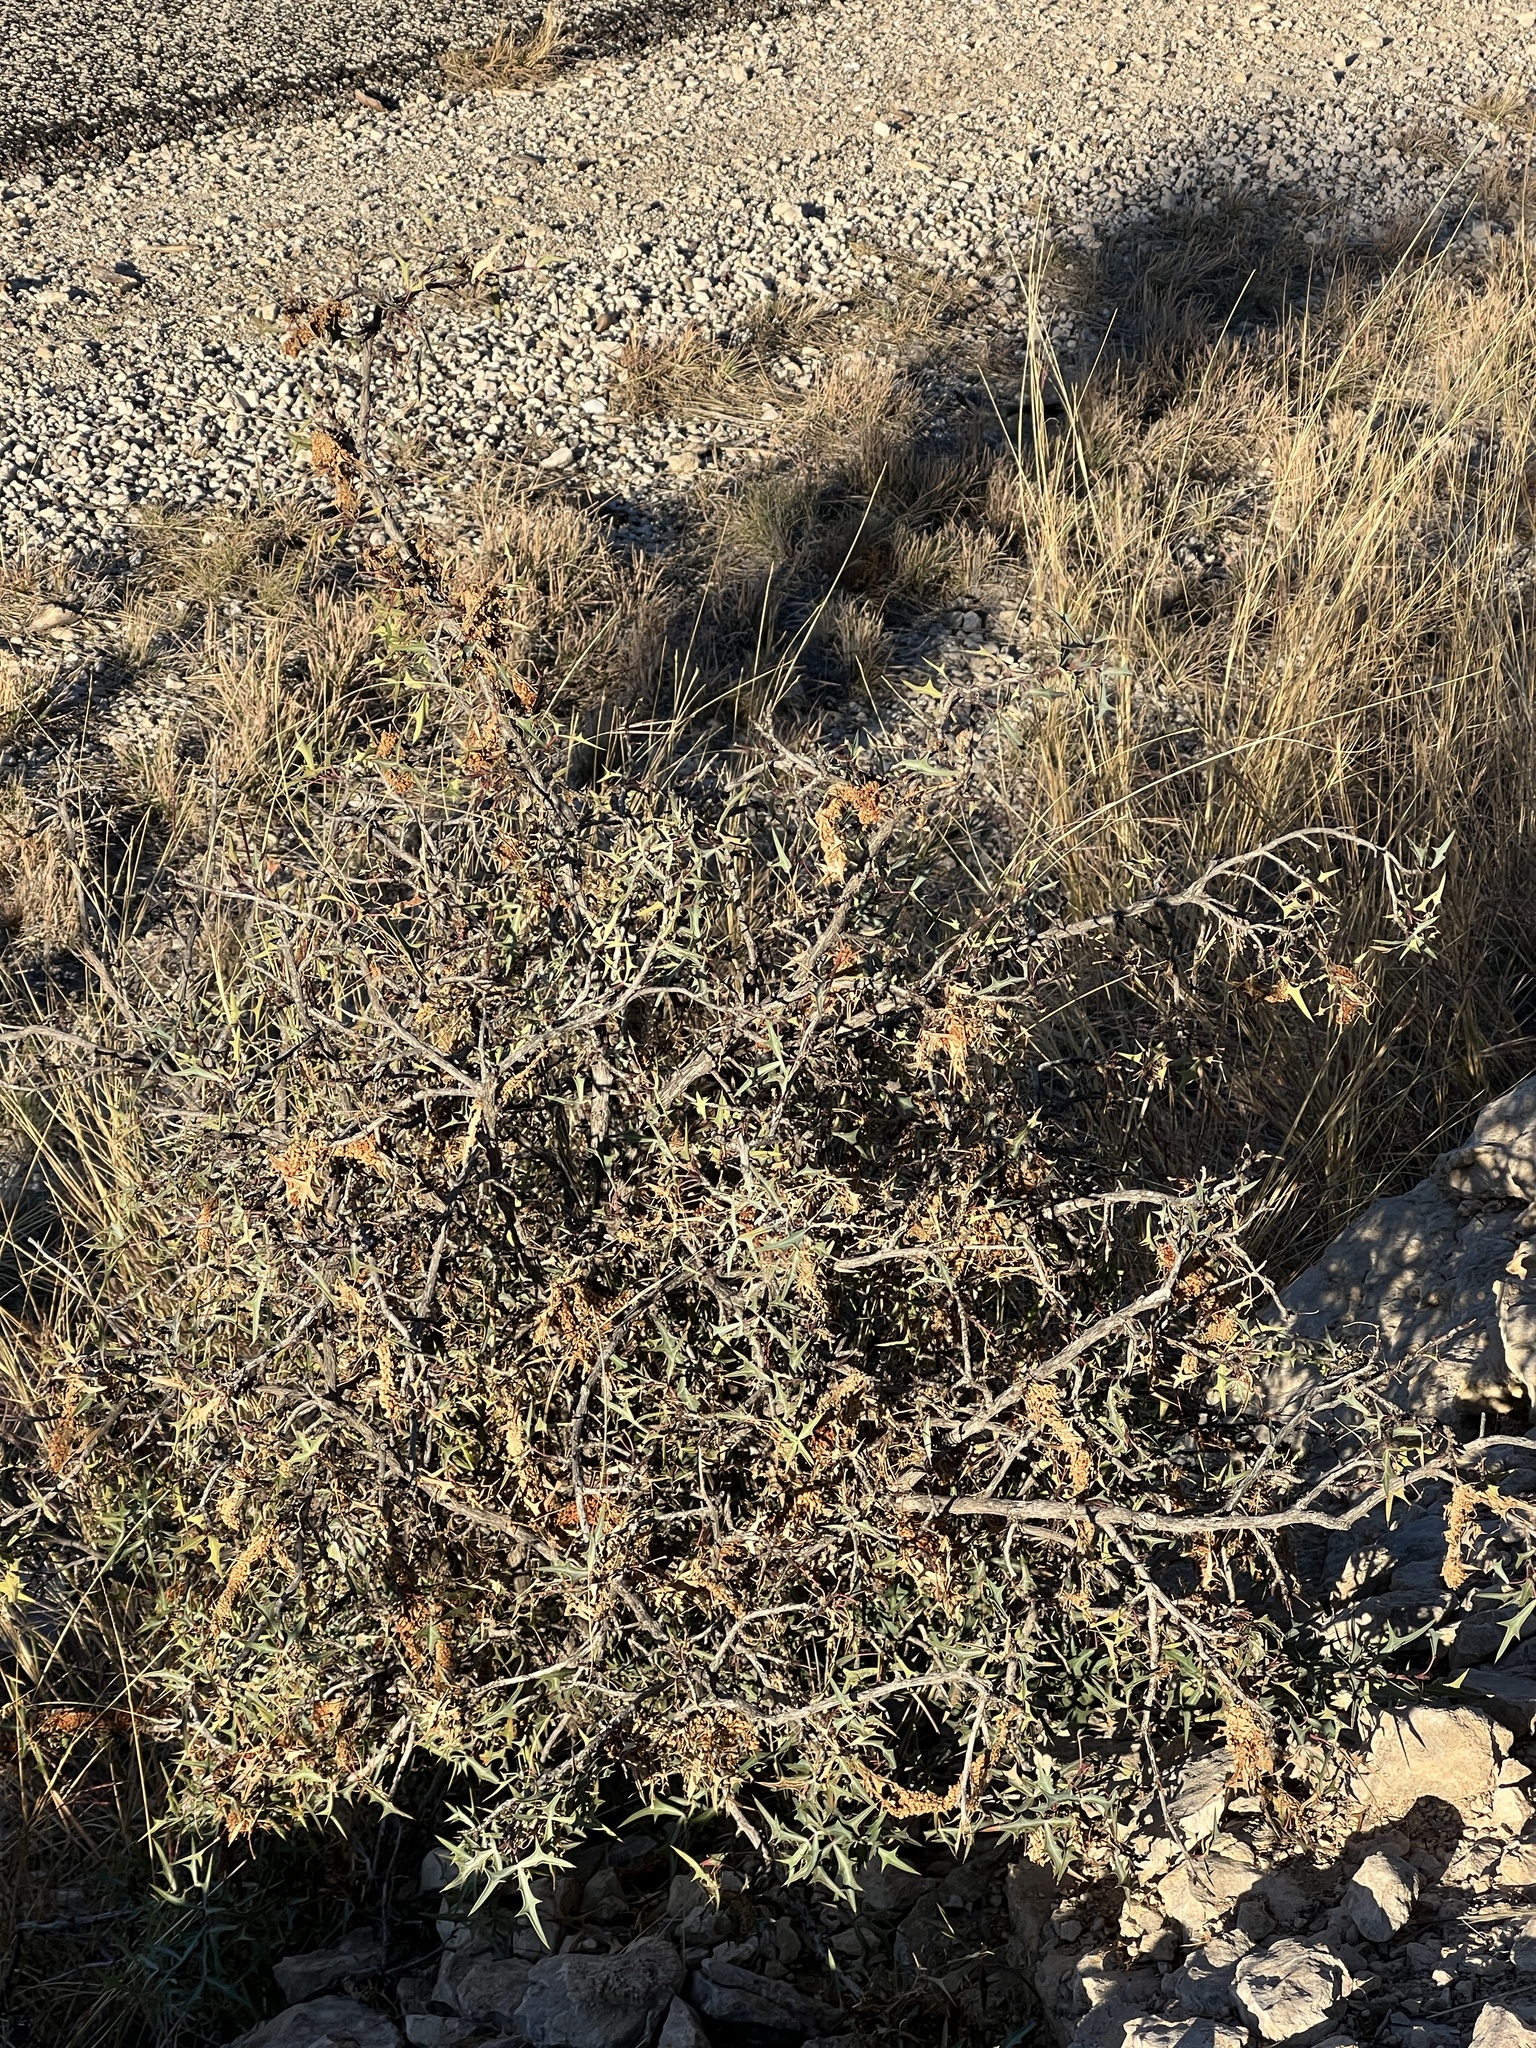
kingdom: Plantae
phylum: Tracheophyta
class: Magnoliopsida
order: Ranunculales
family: Berberidaceae
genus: Alloberberis
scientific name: Alloberberis trifoliolata
